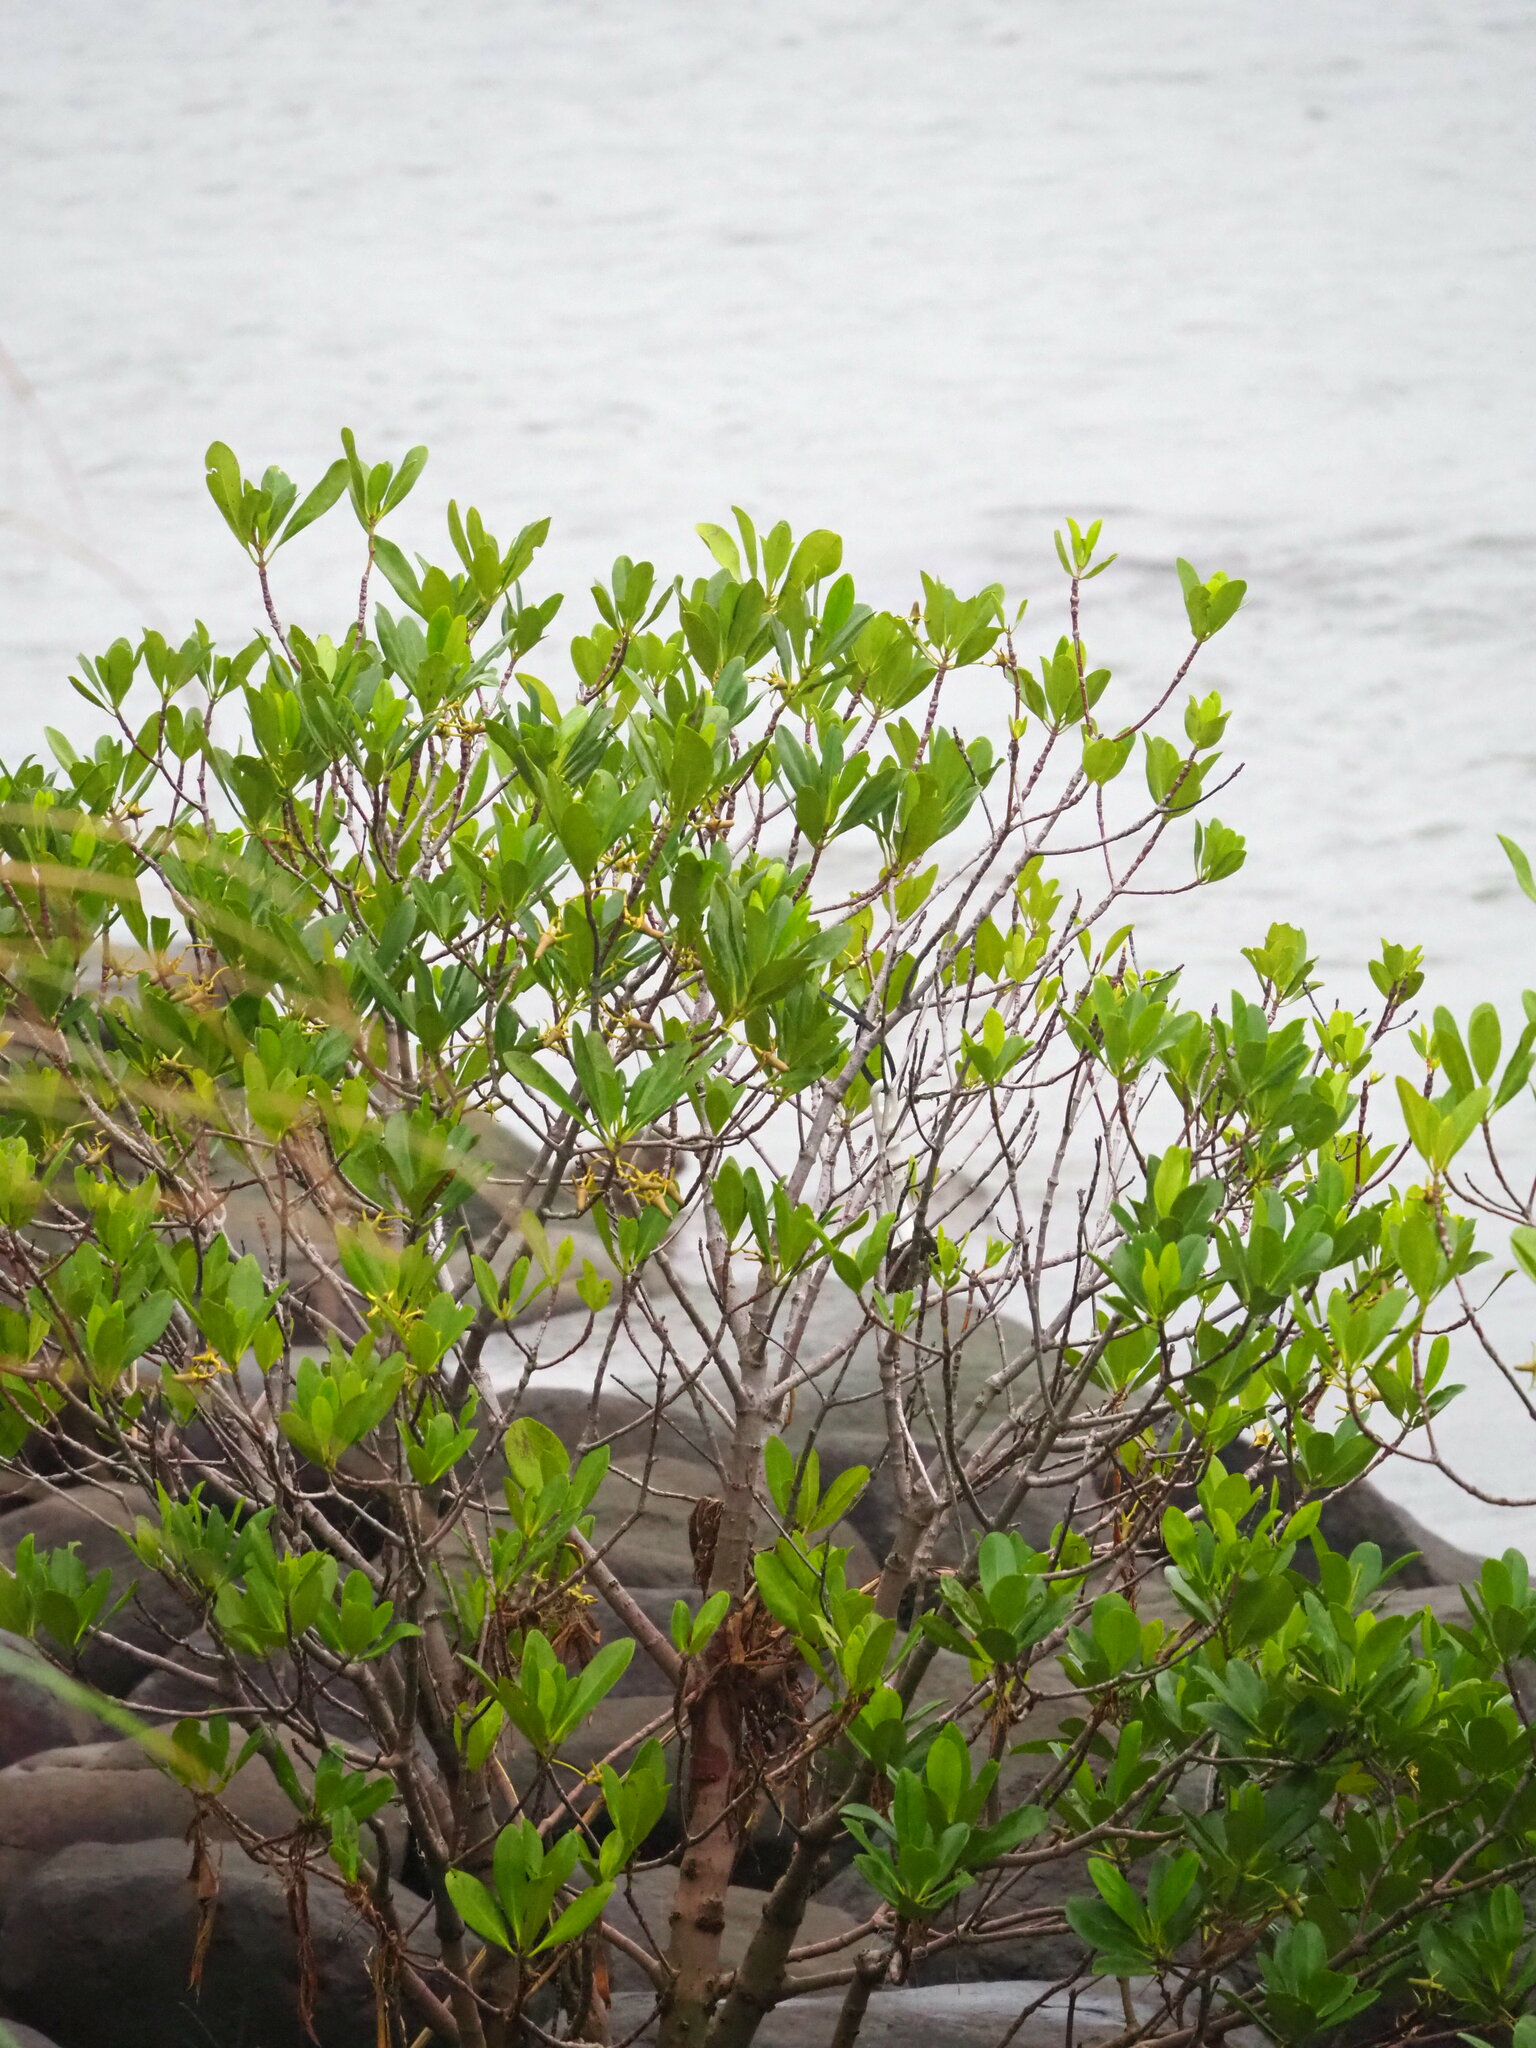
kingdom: Plantae
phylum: Tracheophyta
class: Magnoliopsida
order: Malpighiales
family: Rhizophoraceae
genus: Kandelia
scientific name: Kandelia obovata
